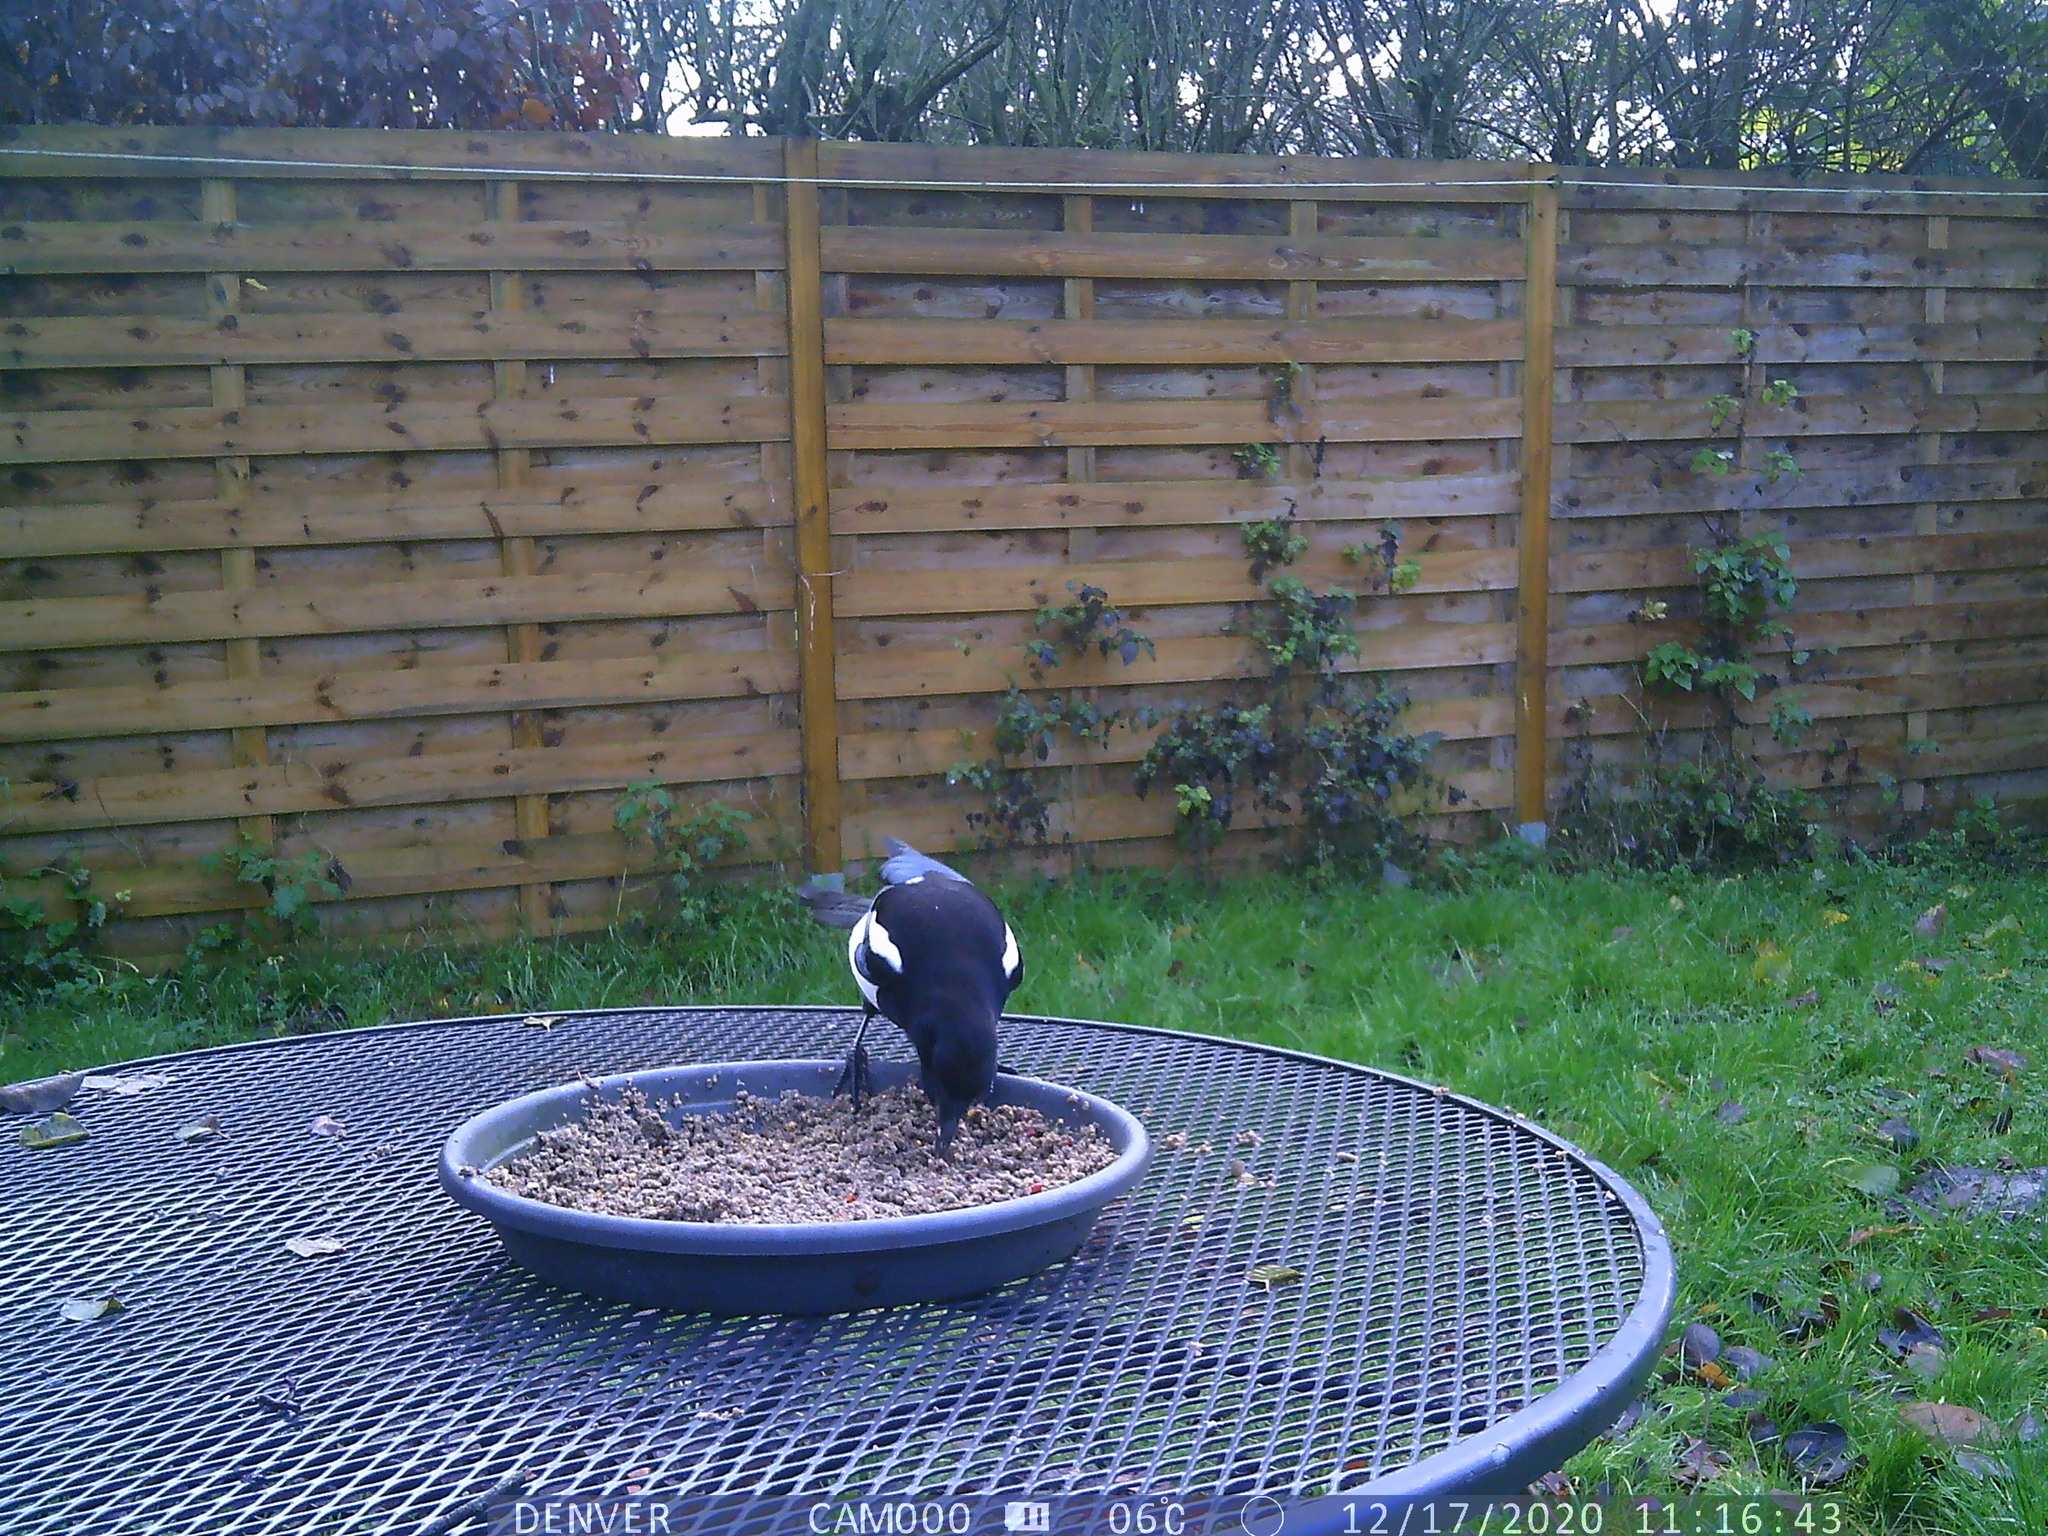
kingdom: Animalia
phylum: Chordata
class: Aves
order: Passeriformes
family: Corvidae
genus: Pica
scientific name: Pica pica
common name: Eurasian magpie
